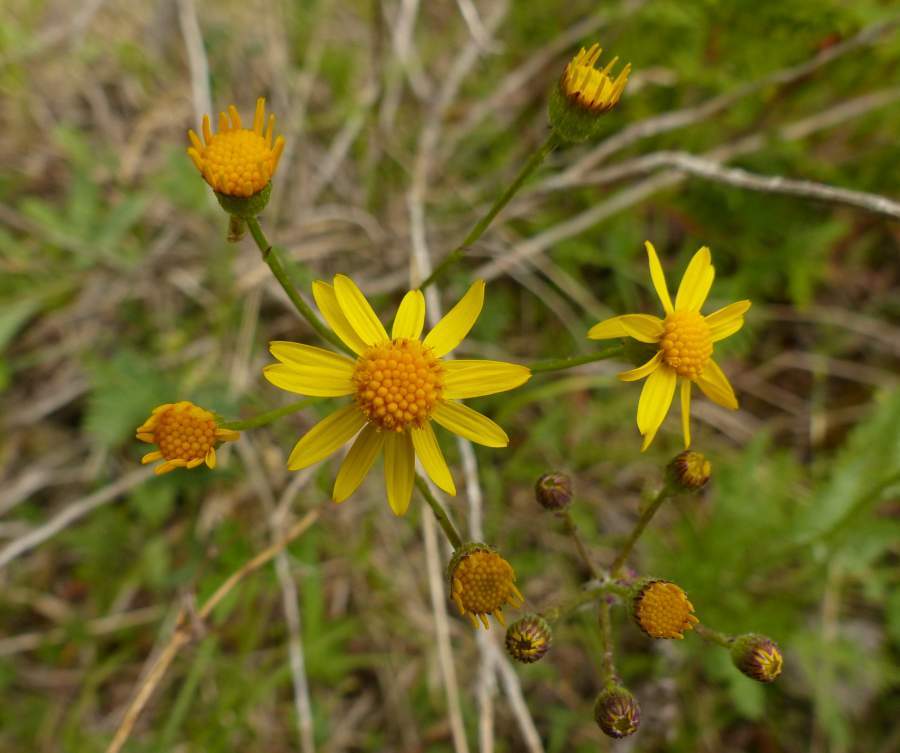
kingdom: Plantae
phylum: Tracheophyta
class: Magnoliopsida
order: Asterales
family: Asteraceae
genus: Packera
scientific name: Packera paupercula
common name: Balsam groundsel
